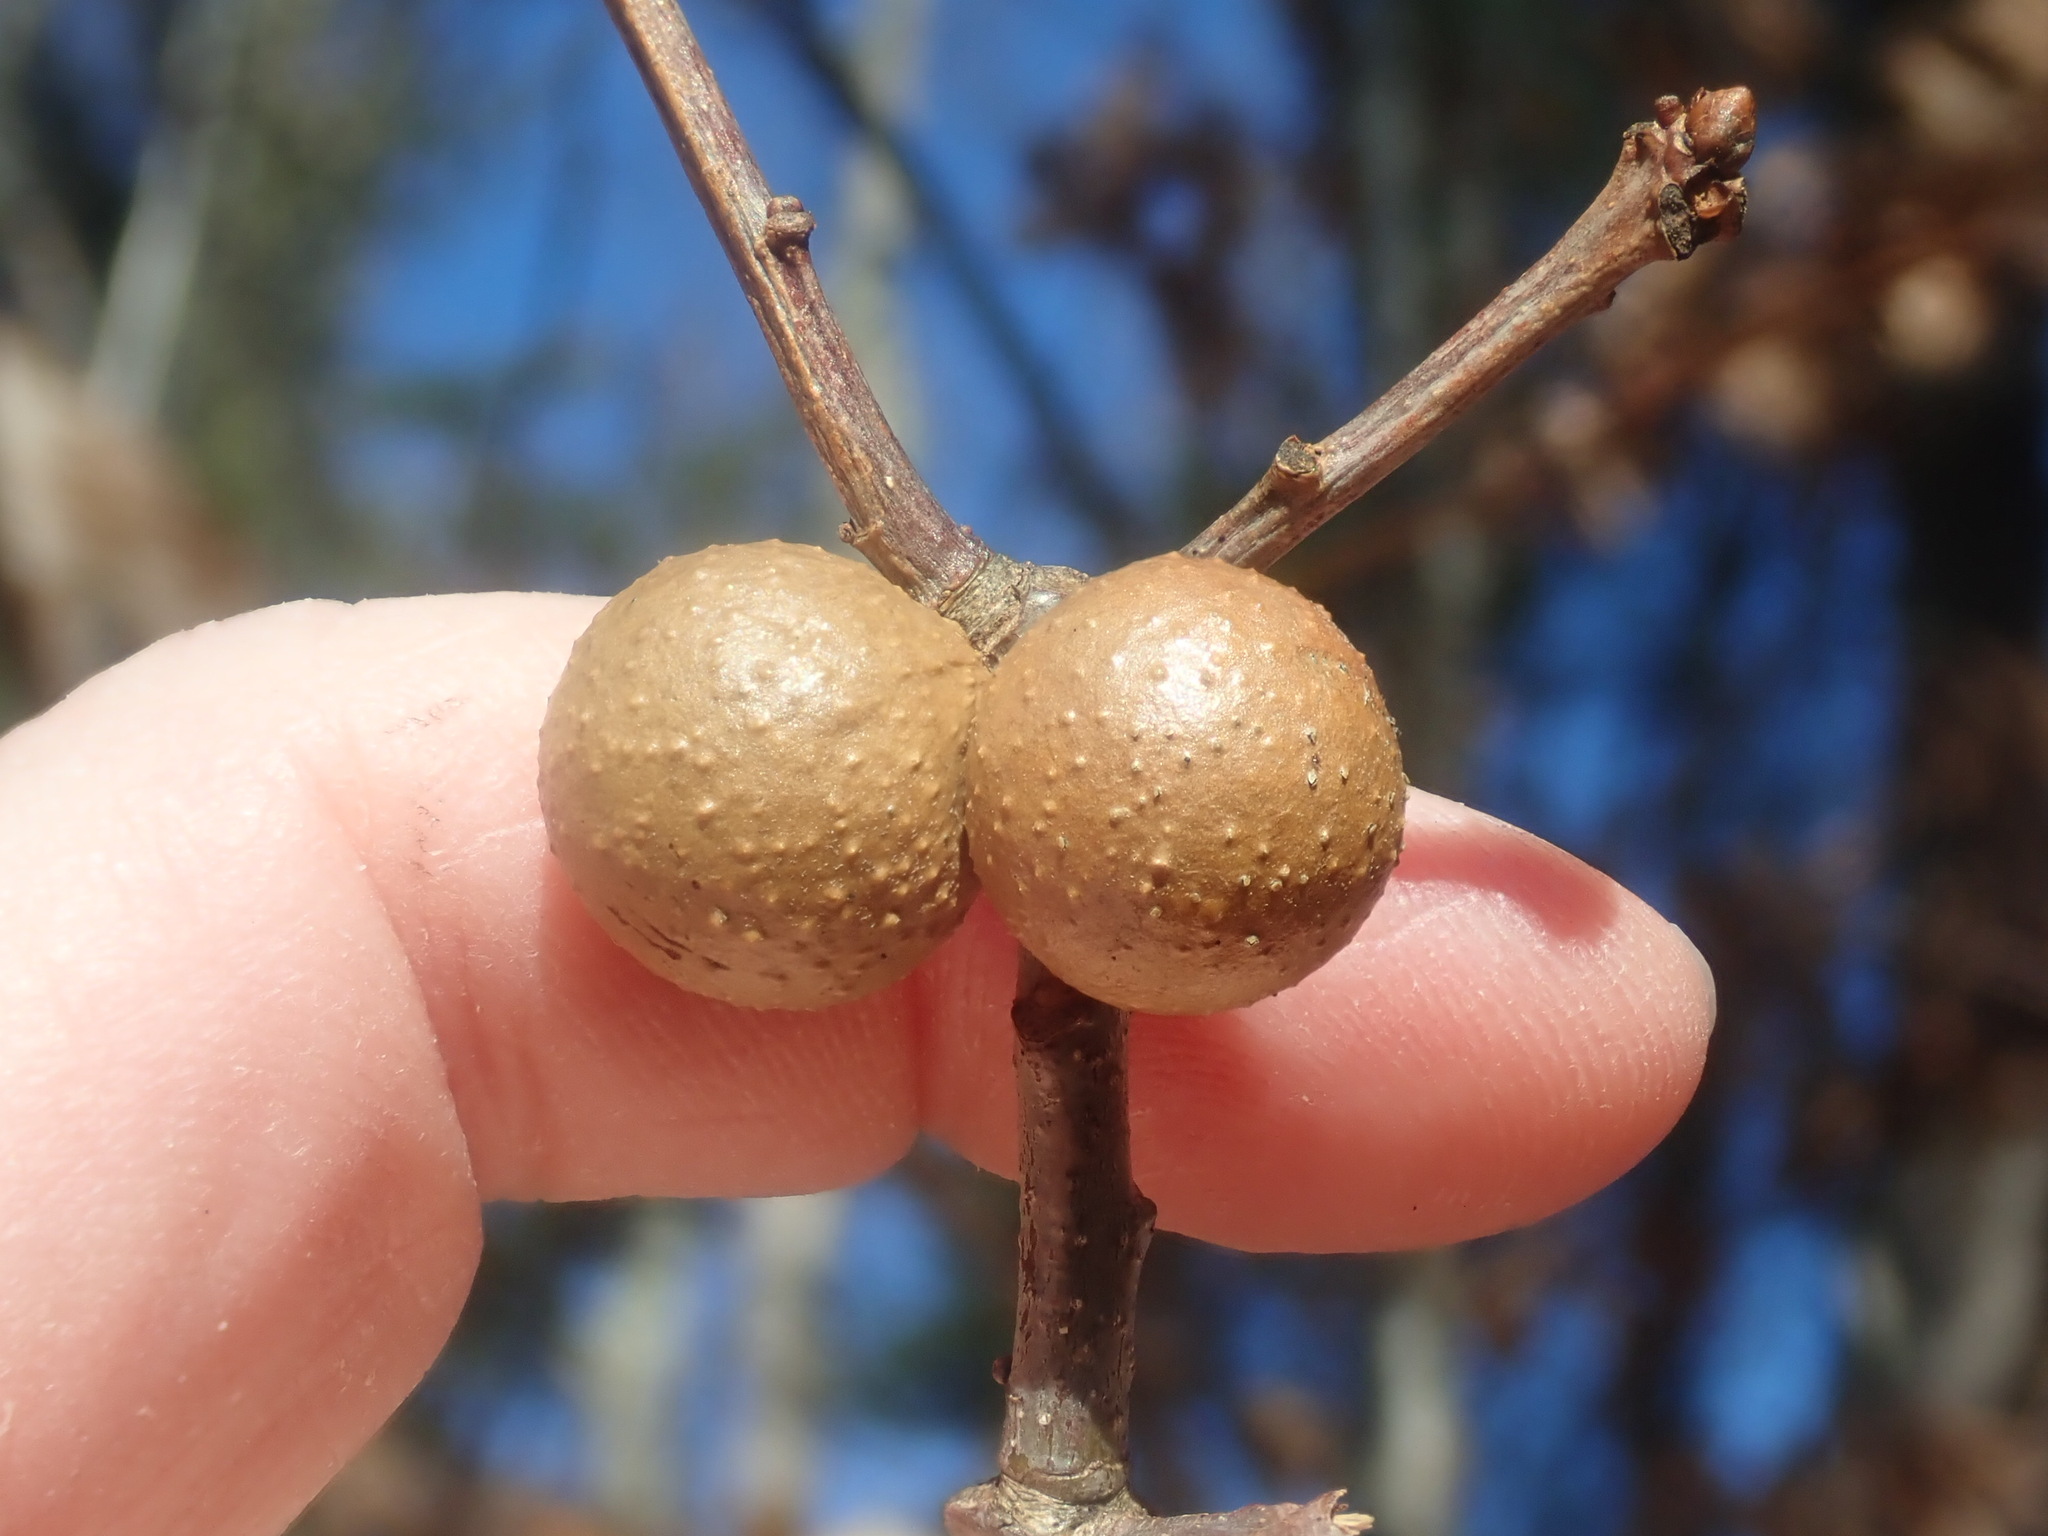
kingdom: Animalia
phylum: Arthropoda
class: Insecta
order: Hymenoptera
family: Cynipidae
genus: Disholcaspis
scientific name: Disholcaspis quercusglobulus
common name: Round bullet gall wasp
